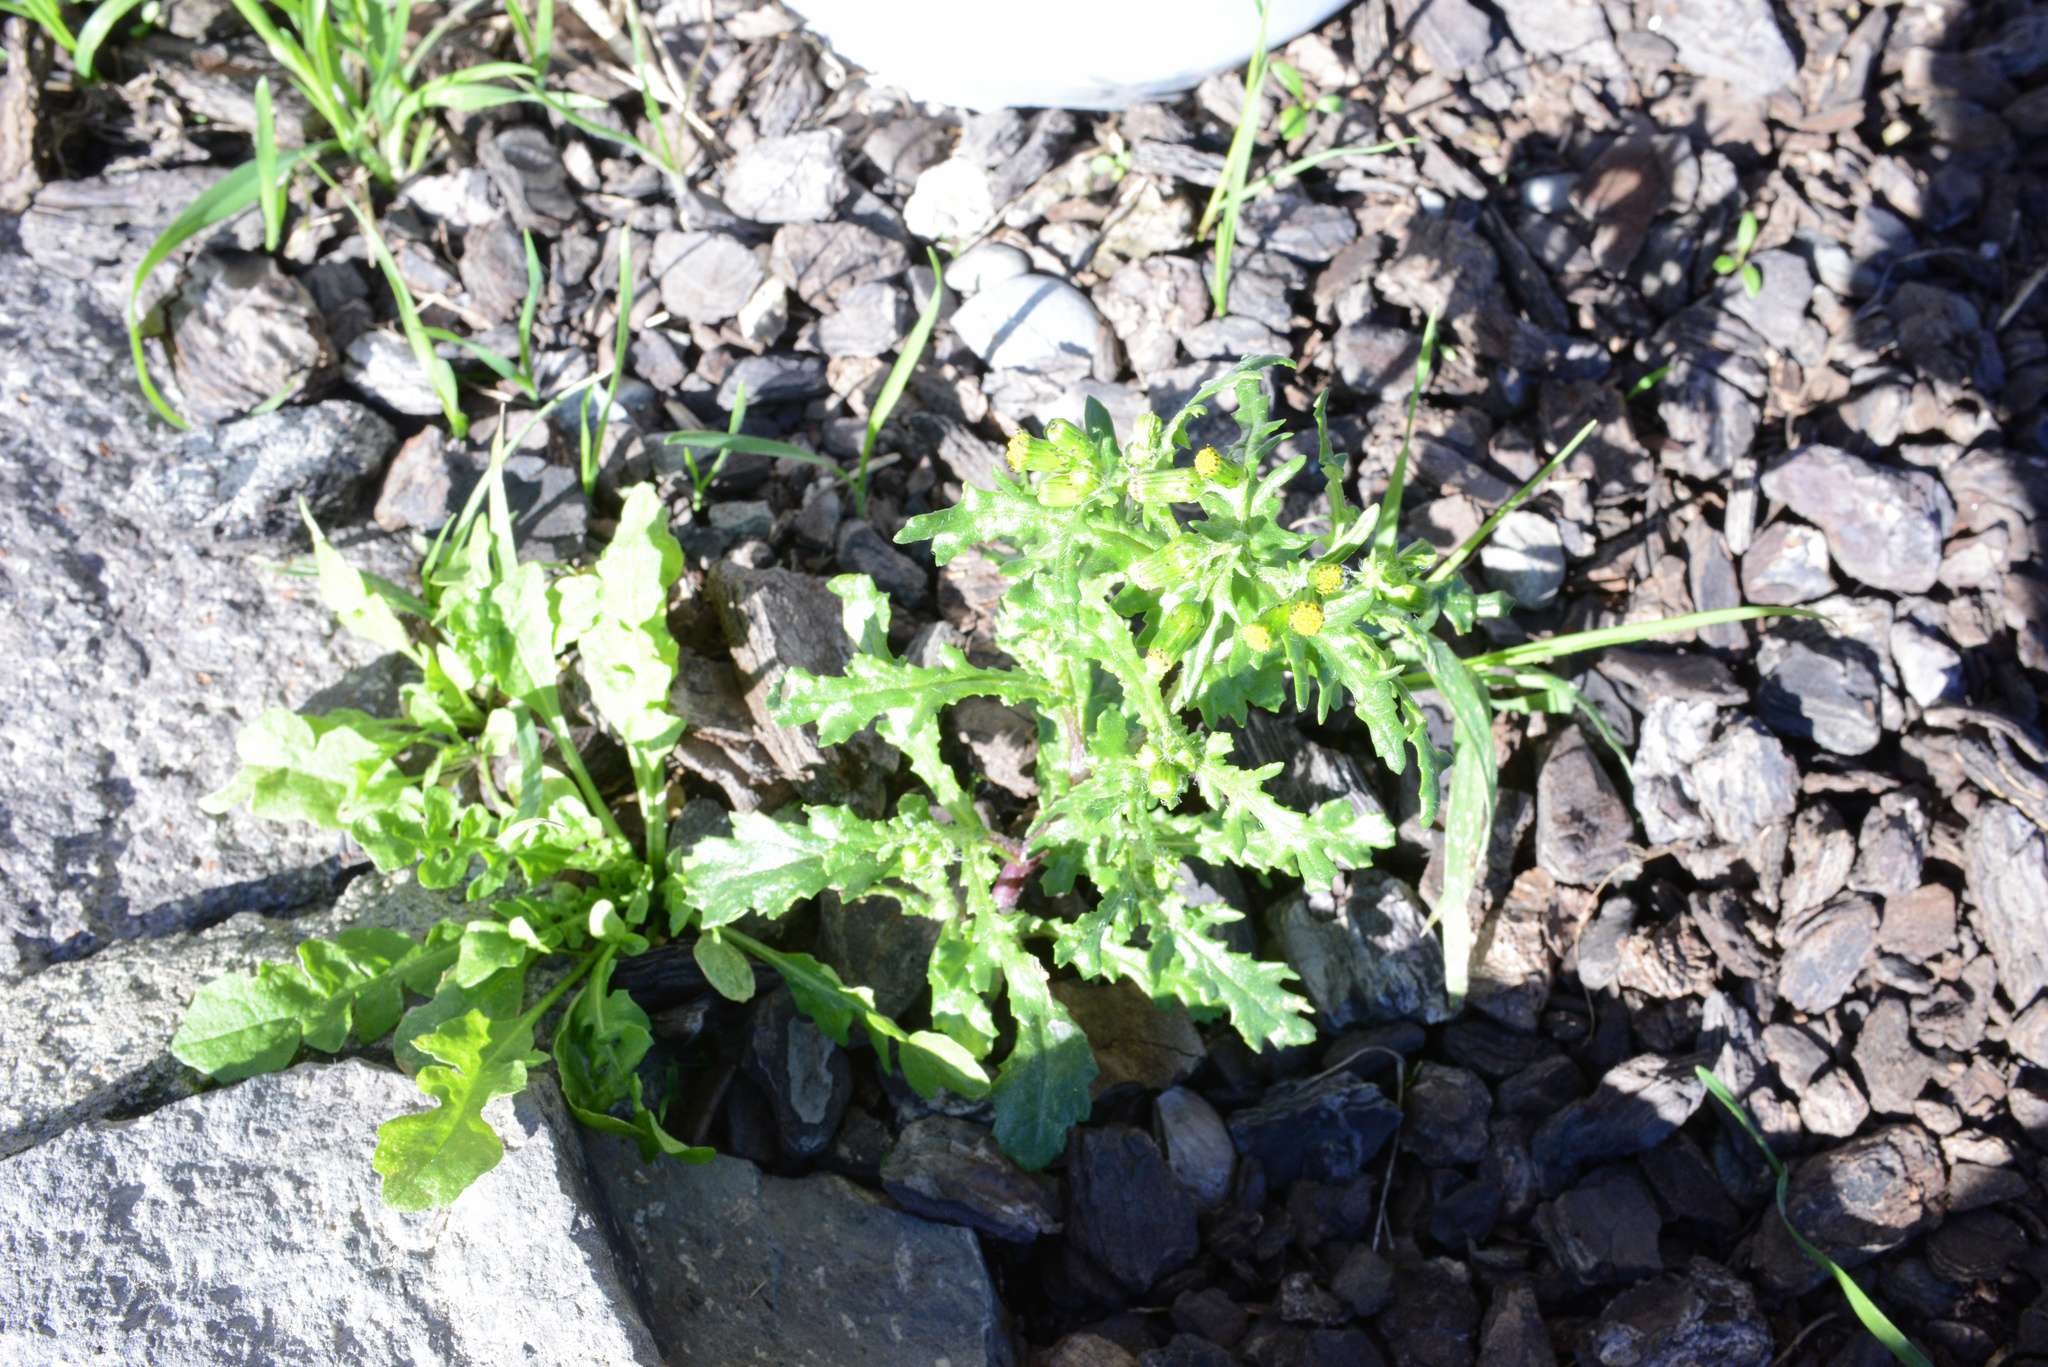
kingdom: Plantae
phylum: Tracheophyta
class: Magnoliopsida
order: Asterales
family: Asteraceae
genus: Senecio
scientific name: Senecio vulgaris
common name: Old-man-in-the-spring
